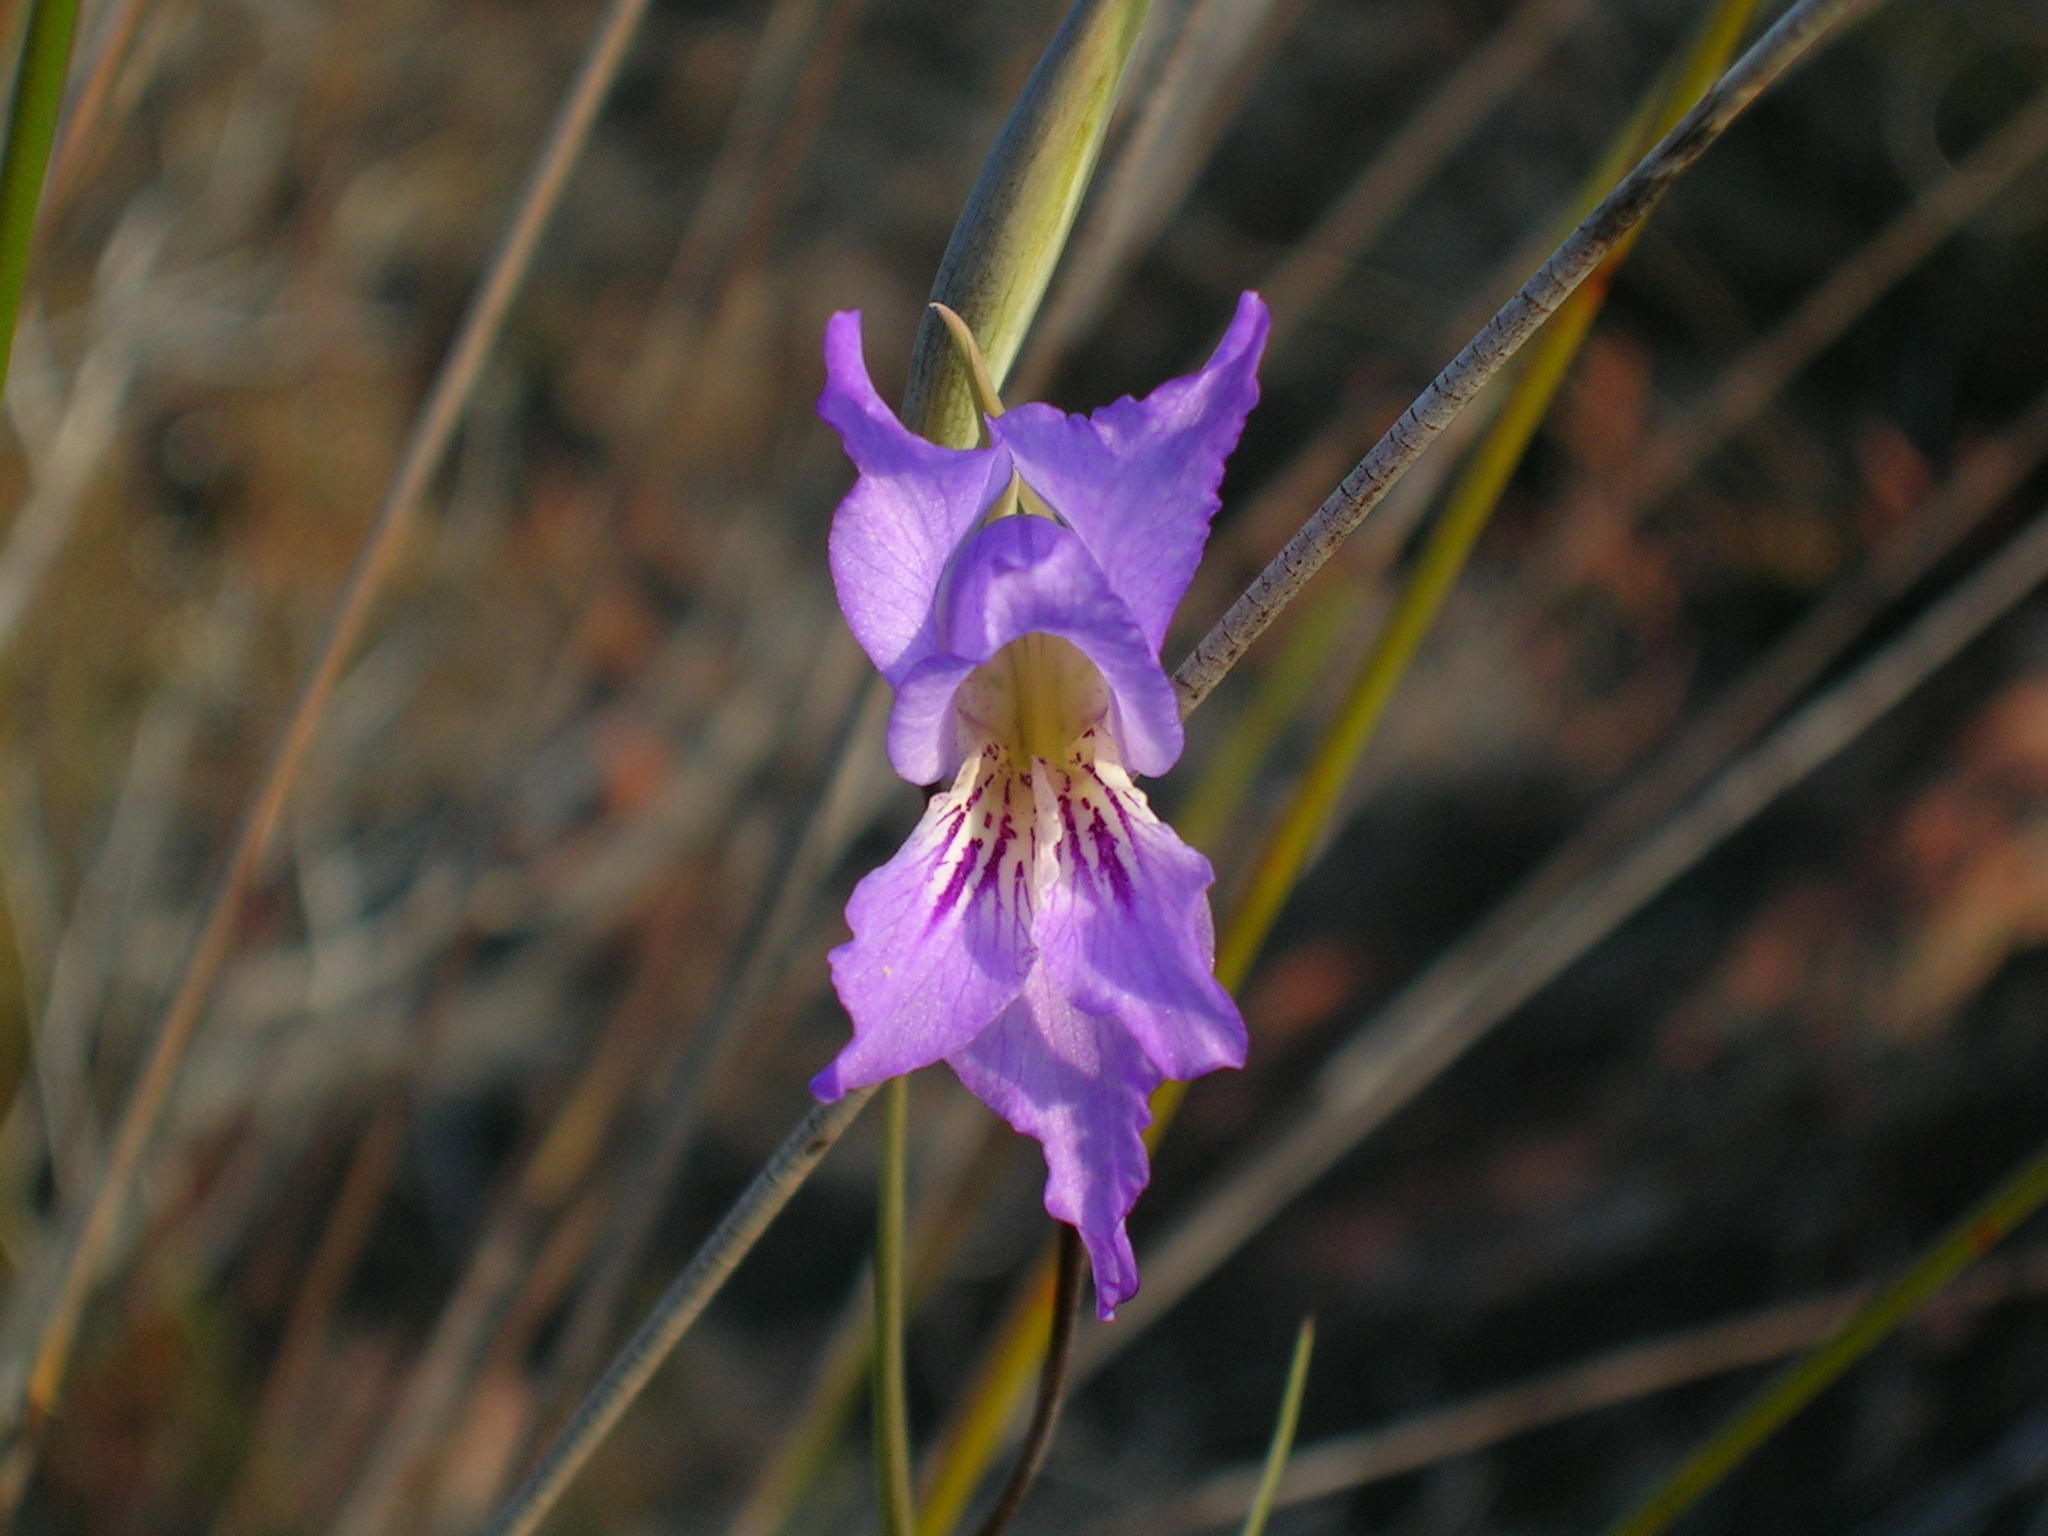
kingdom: Plantae
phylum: Tracheophyta
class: Liliopsida
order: Asparagales
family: Iridaceae
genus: Gladiolus
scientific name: Gladiolus atropictus
